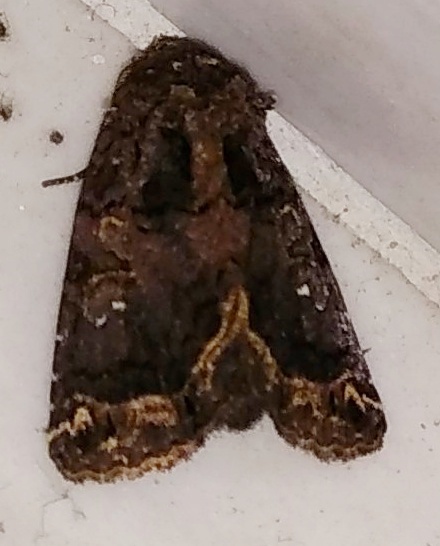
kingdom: Animalia
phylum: Arthropoda
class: Insecta
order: Lepidoptera
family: Noctuidae
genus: Callopistria
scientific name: Callopistria apicalis
